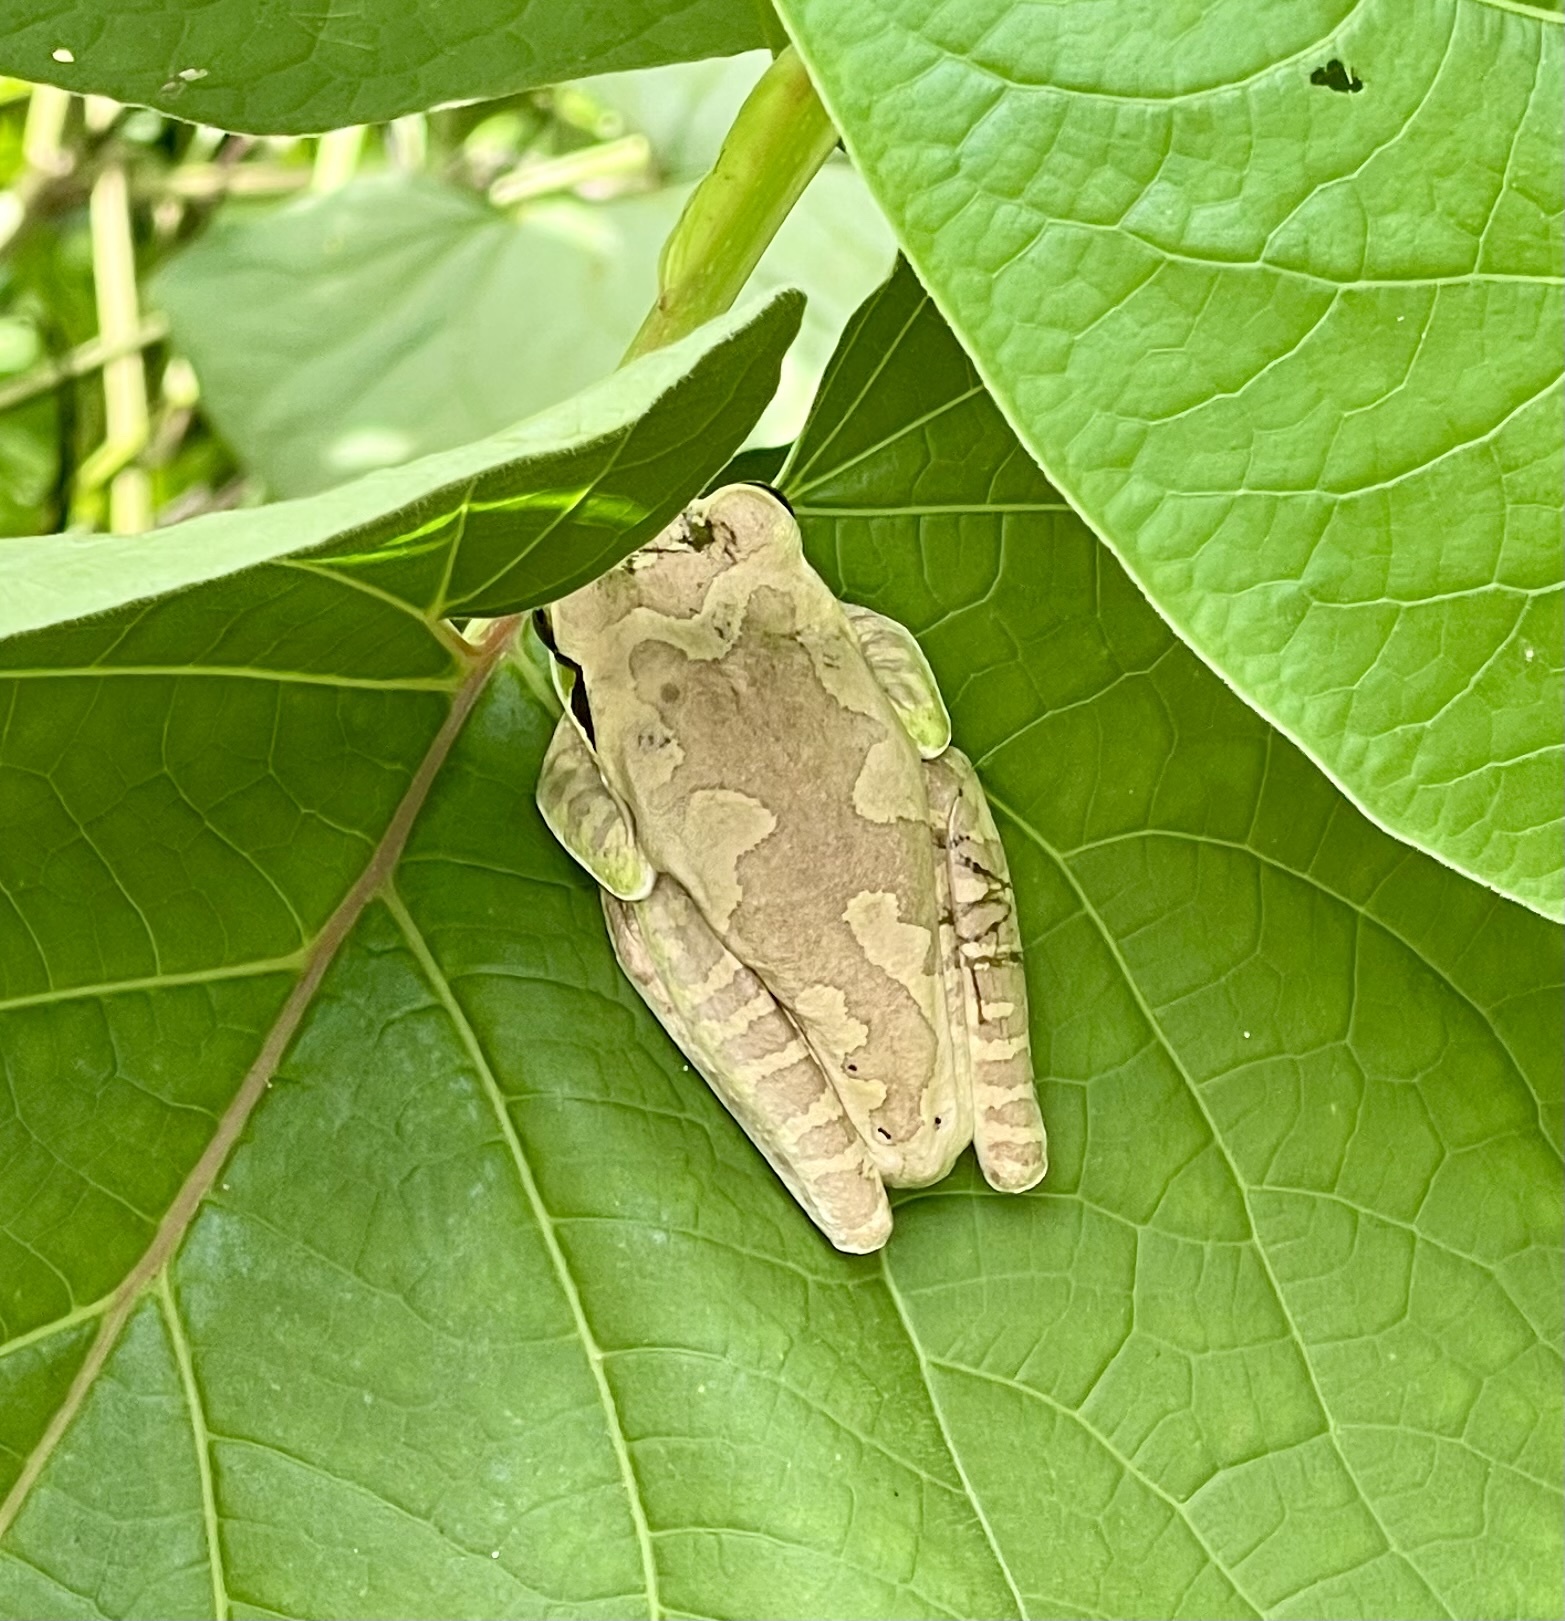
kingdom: Animalia
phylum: Chordata
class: Amphibia
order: Anura
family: Hylidae
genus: Smilisca
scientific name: Smilisca phaeota
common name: Central american smilisca
